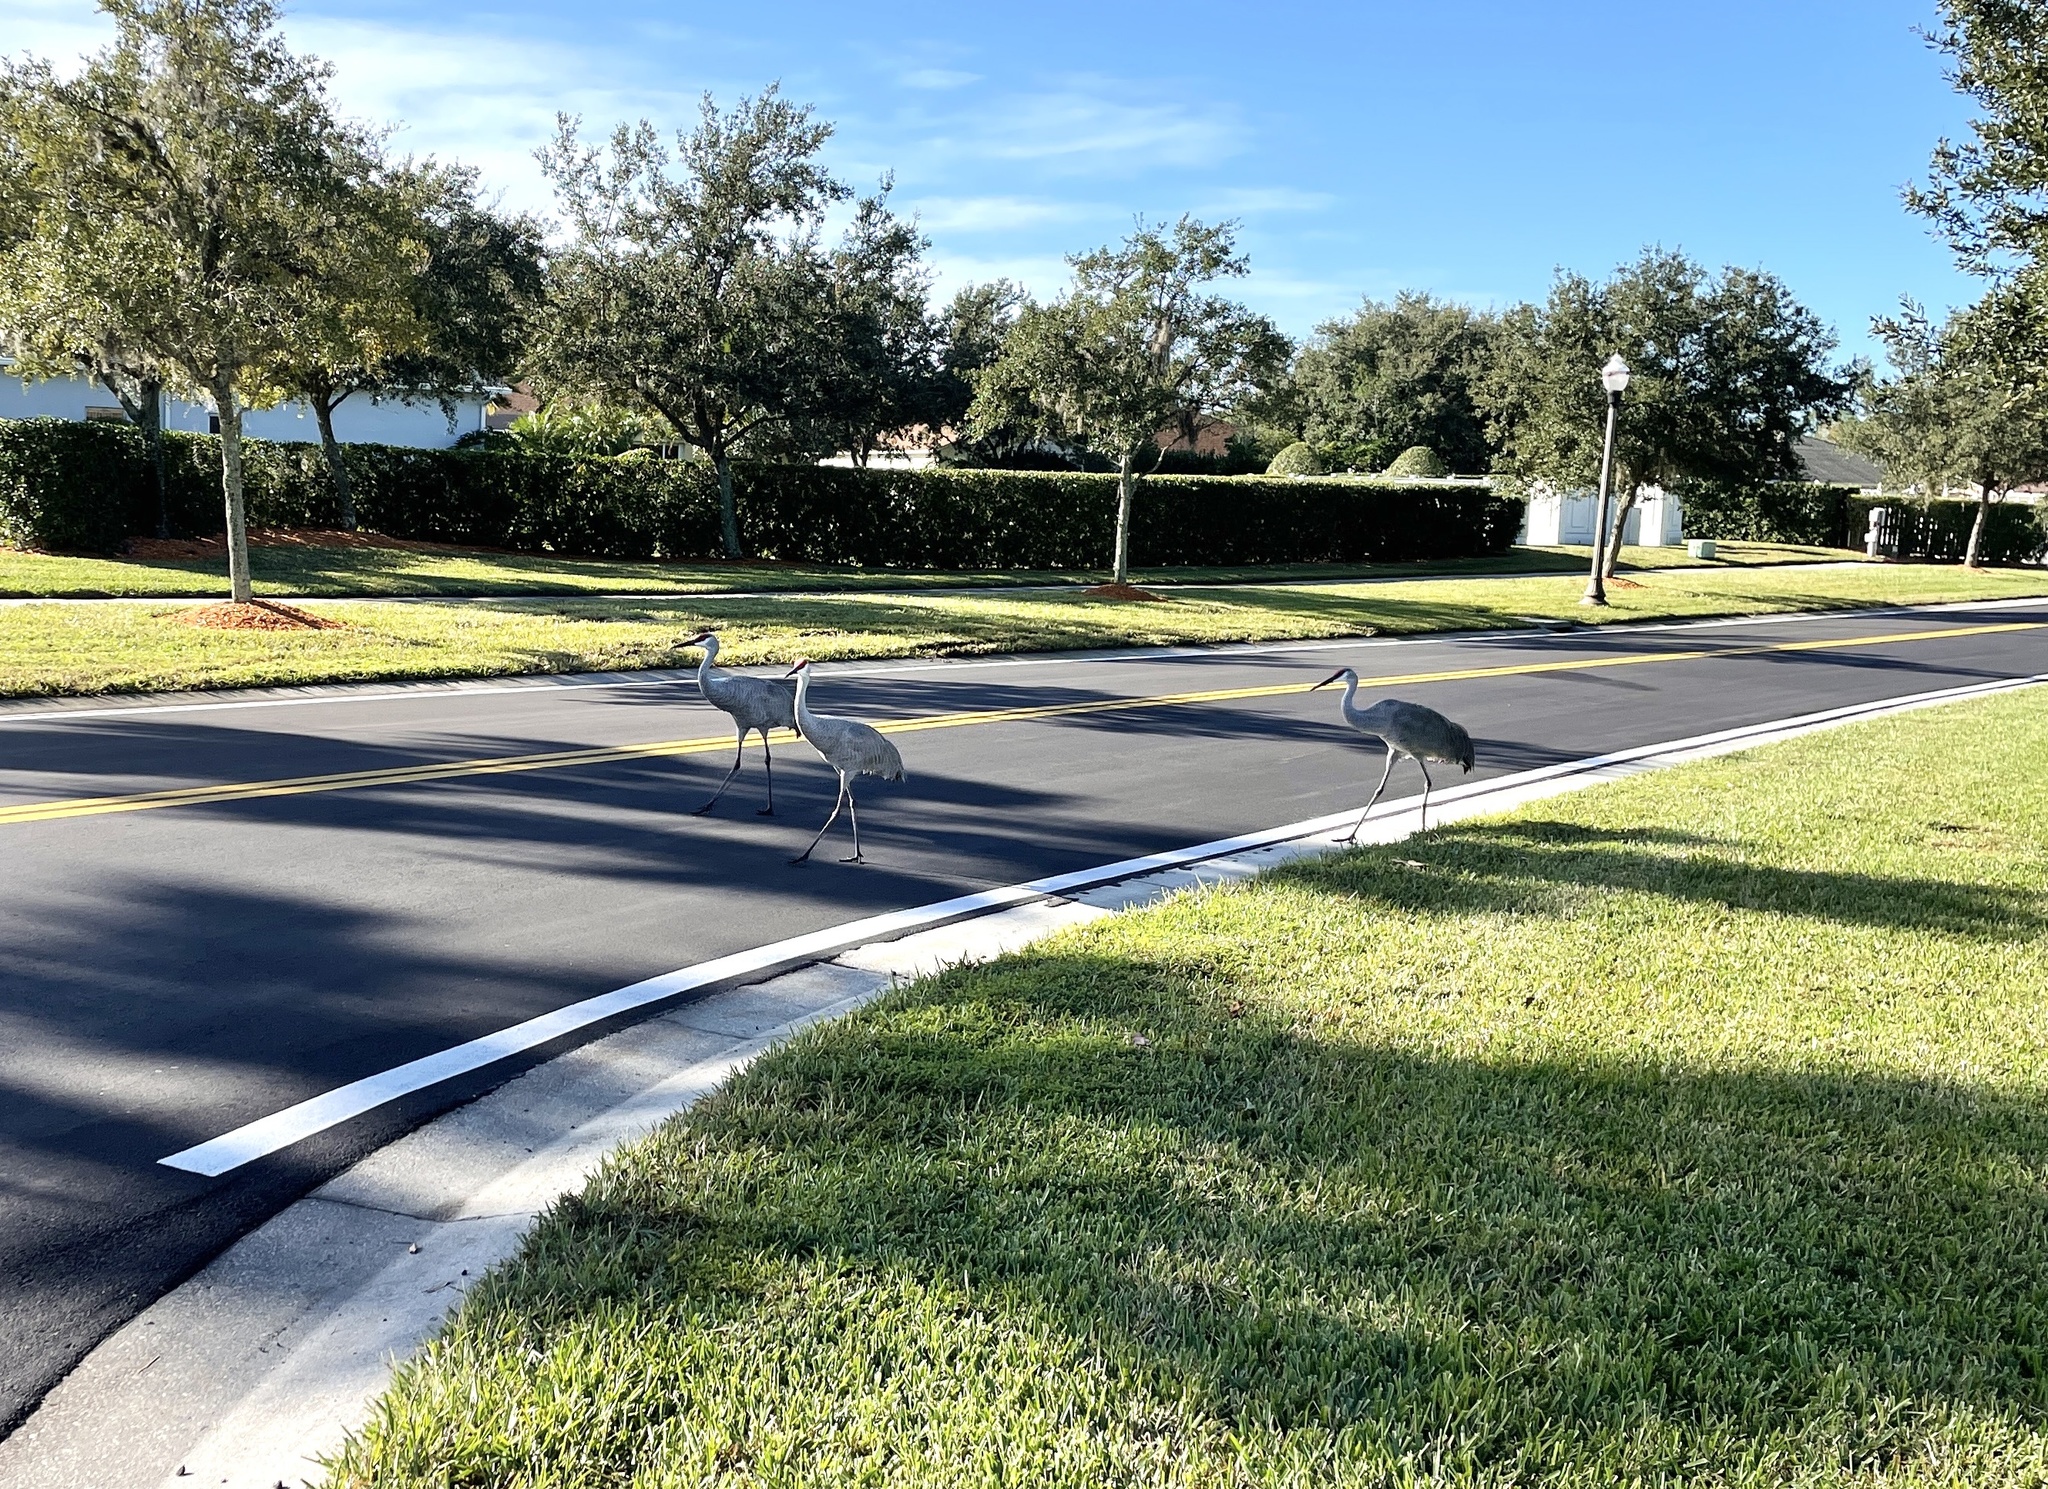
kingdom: Animalia
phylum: Chordata
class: Aves
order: Gruiformes
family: Gruidae
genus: Grus
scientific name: Grus canadensis
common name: Sandhill crane
